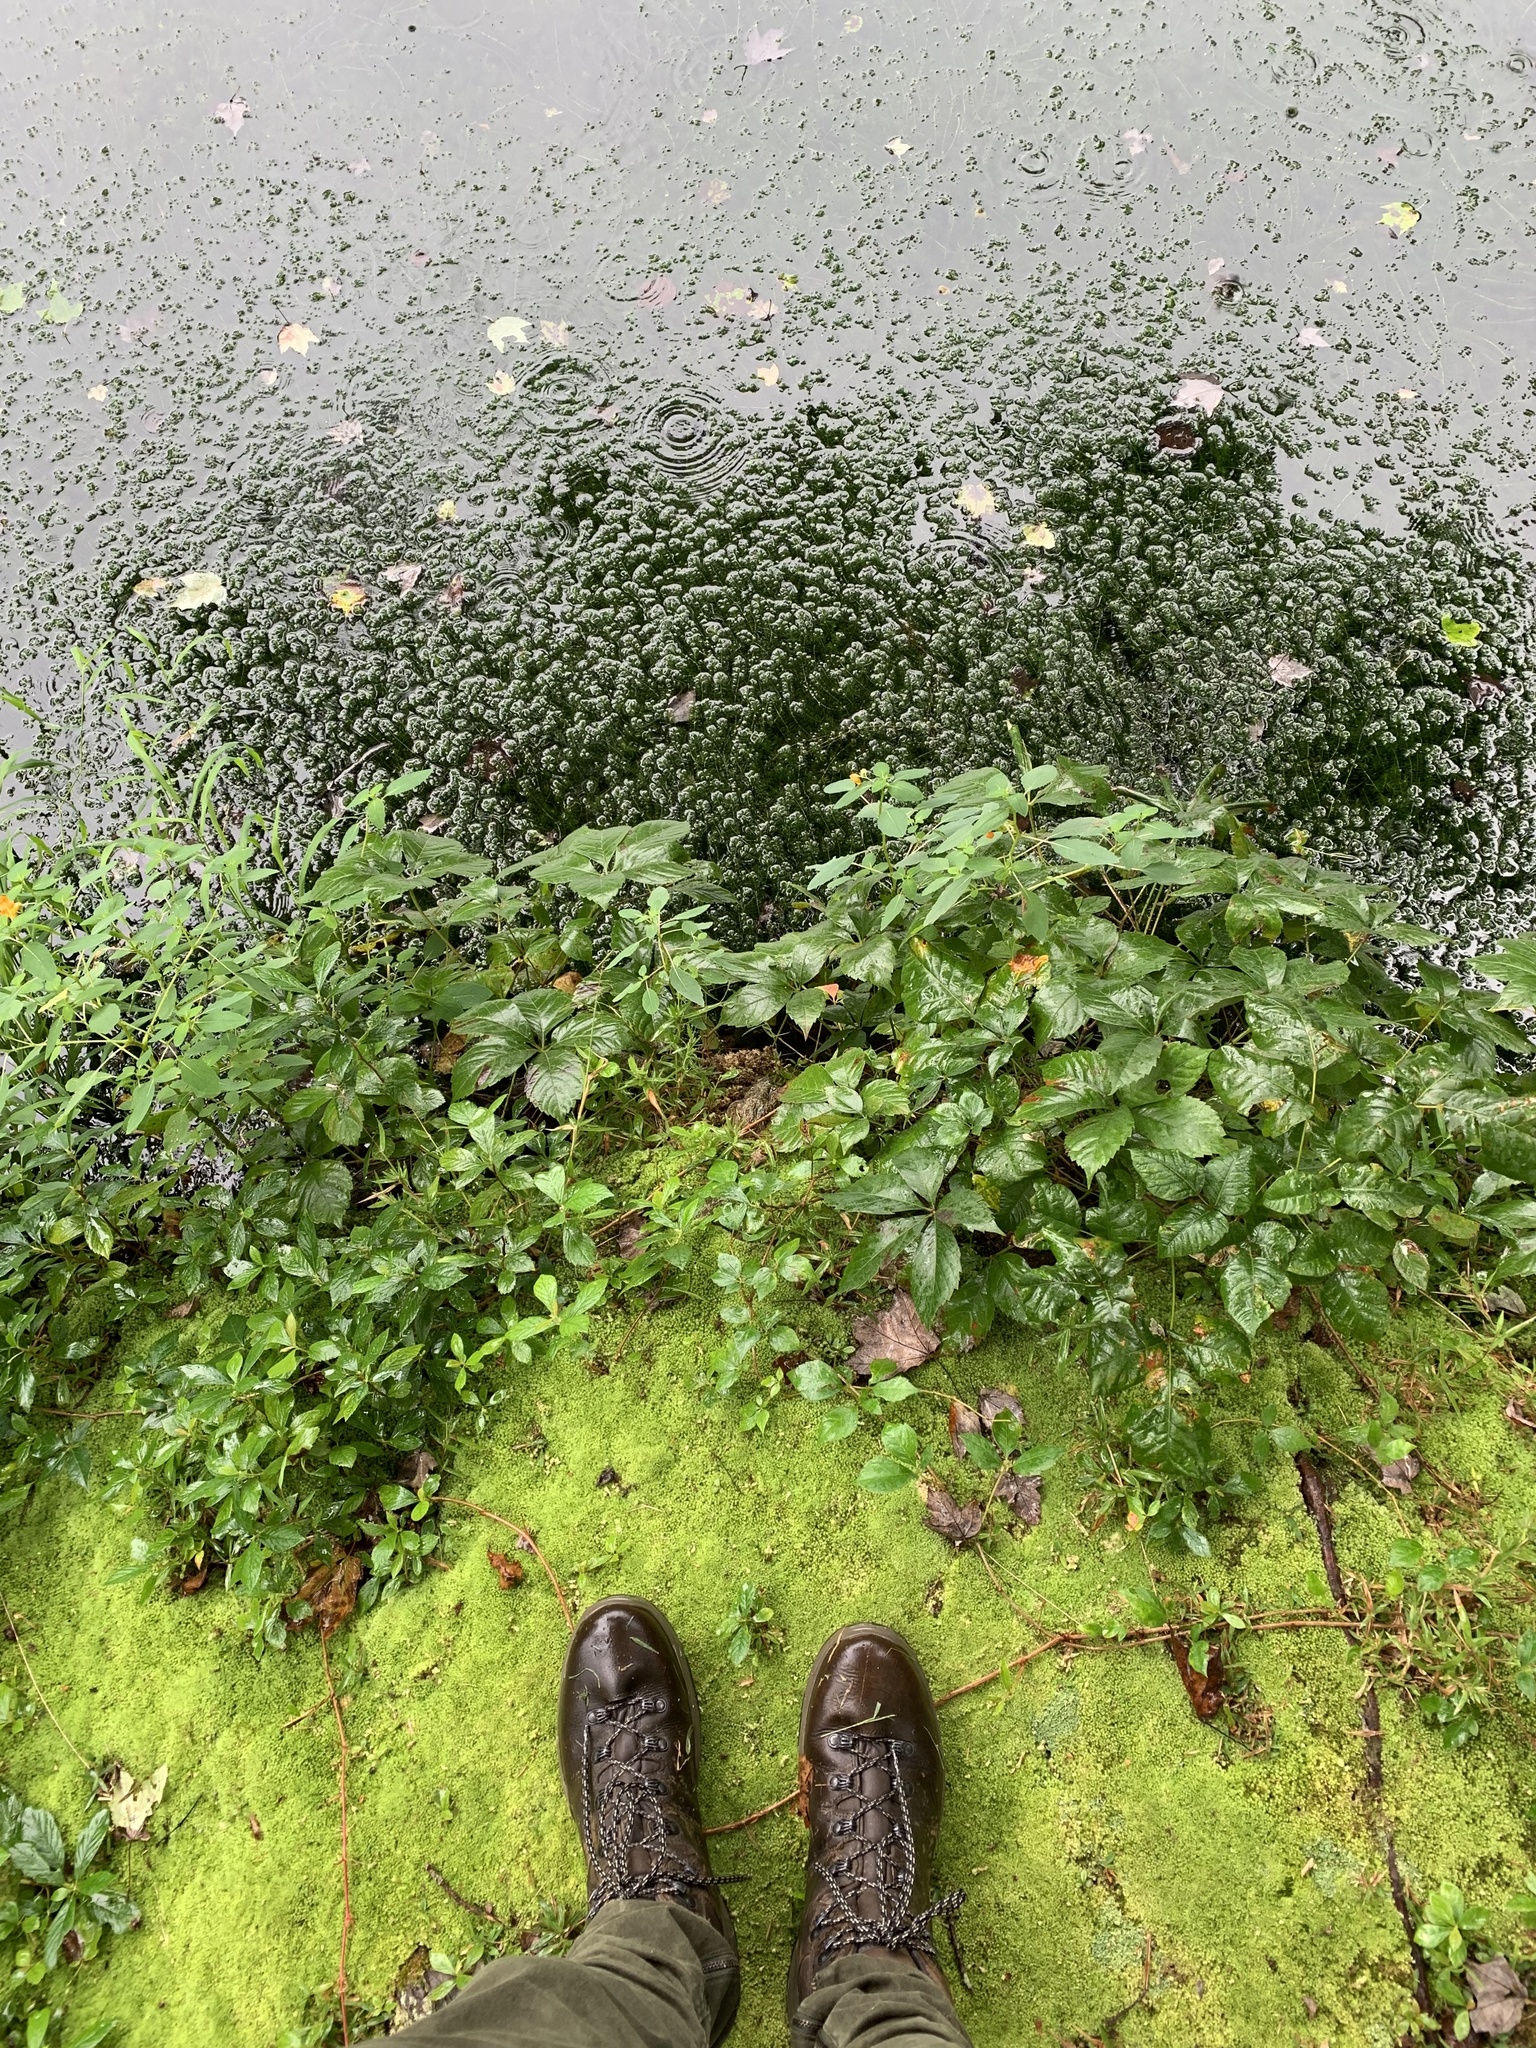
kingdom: Plantae
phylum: Tracheophyta
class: Magnoliopsida
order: Sapindales
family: Anacardiaceae
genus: Toxicodendron
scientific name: Toxicodendron radicans
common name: Poison ivy
